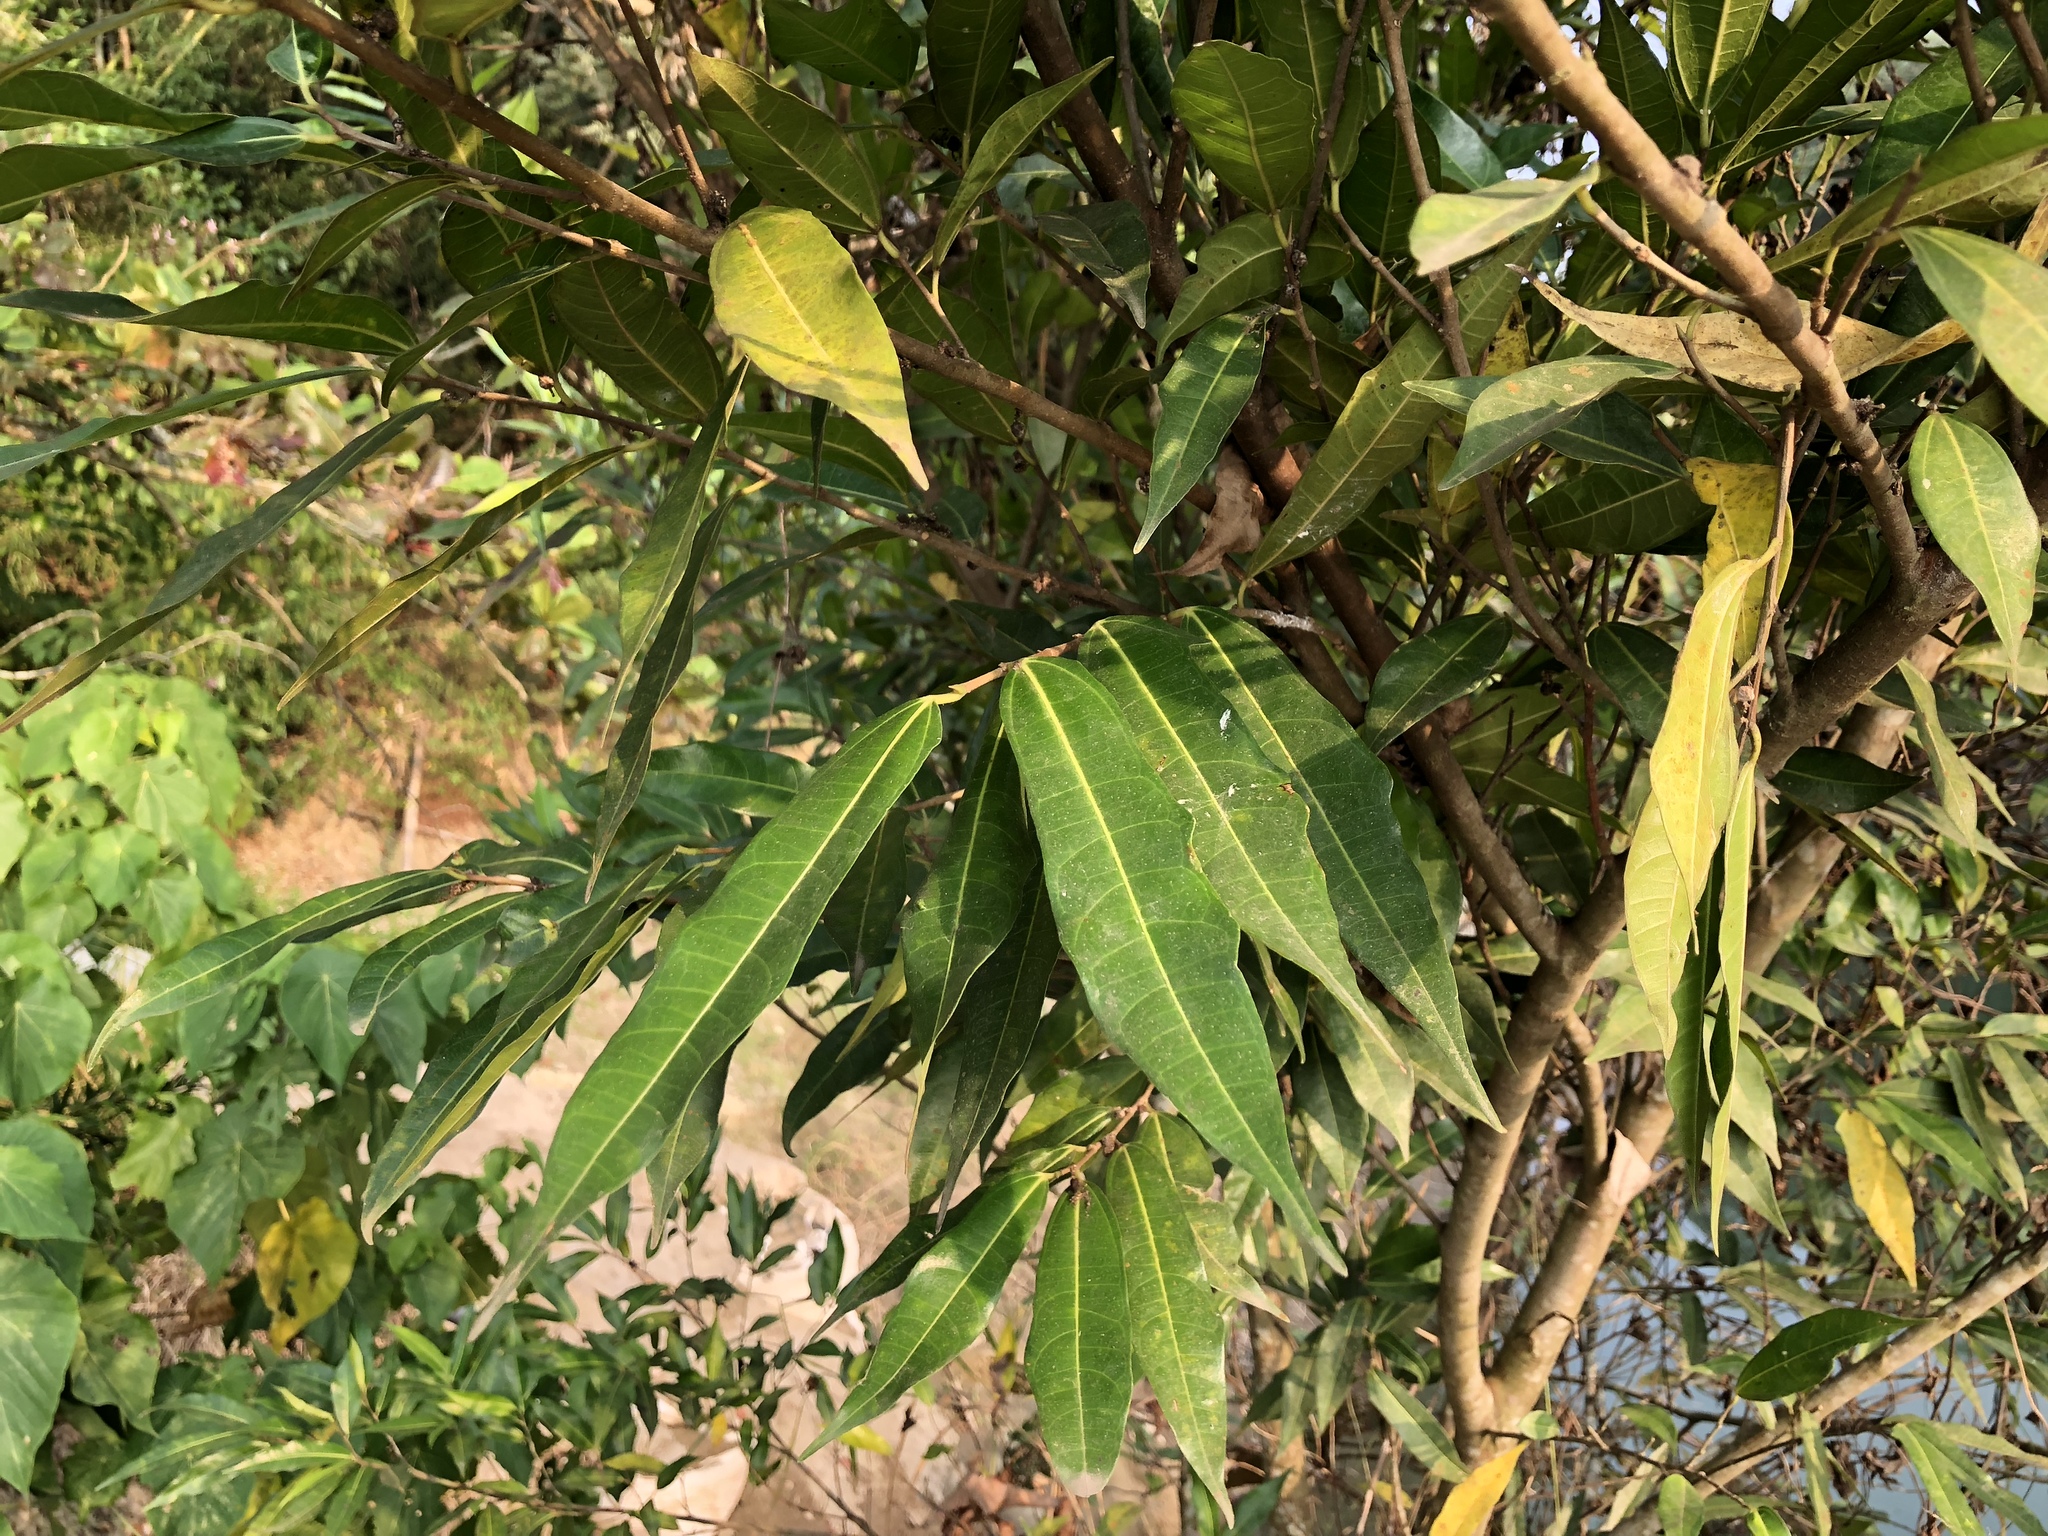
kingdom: Plantae
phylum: Tracheophyta
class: Magnoliopsida
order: Rosales
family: Moraceae
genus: Ficus
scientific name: Ficus ampelos
